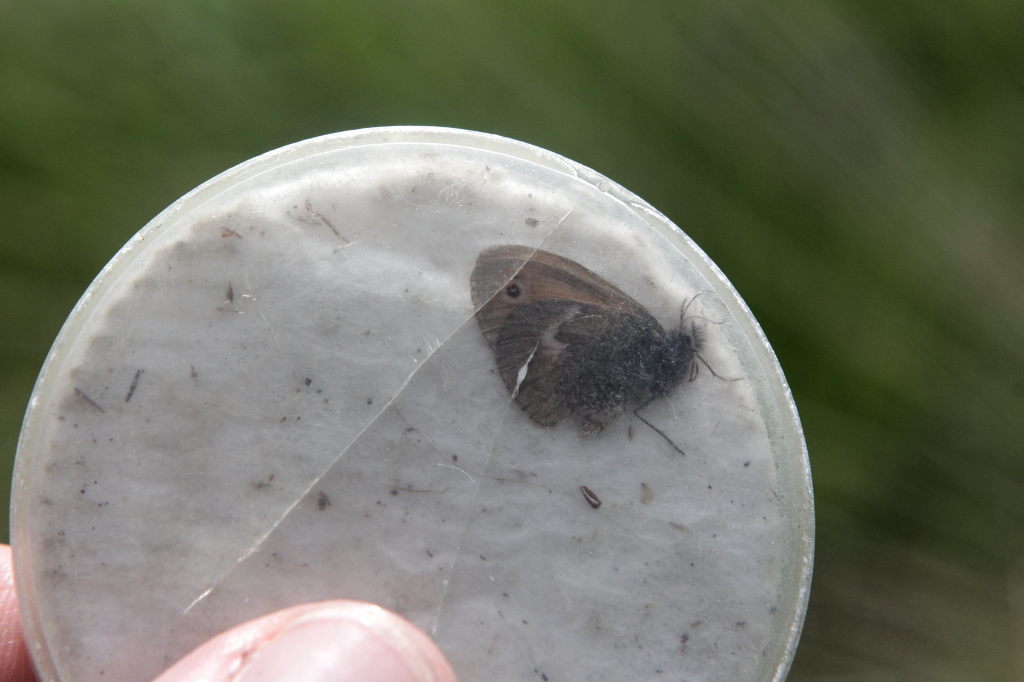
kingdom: Animalia
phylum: Arthropoda
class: Insecta
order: Lepidoptera
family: Nymphalidae
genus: Coenonympha
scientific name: Coenonympha pamphilus
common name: Small heath
